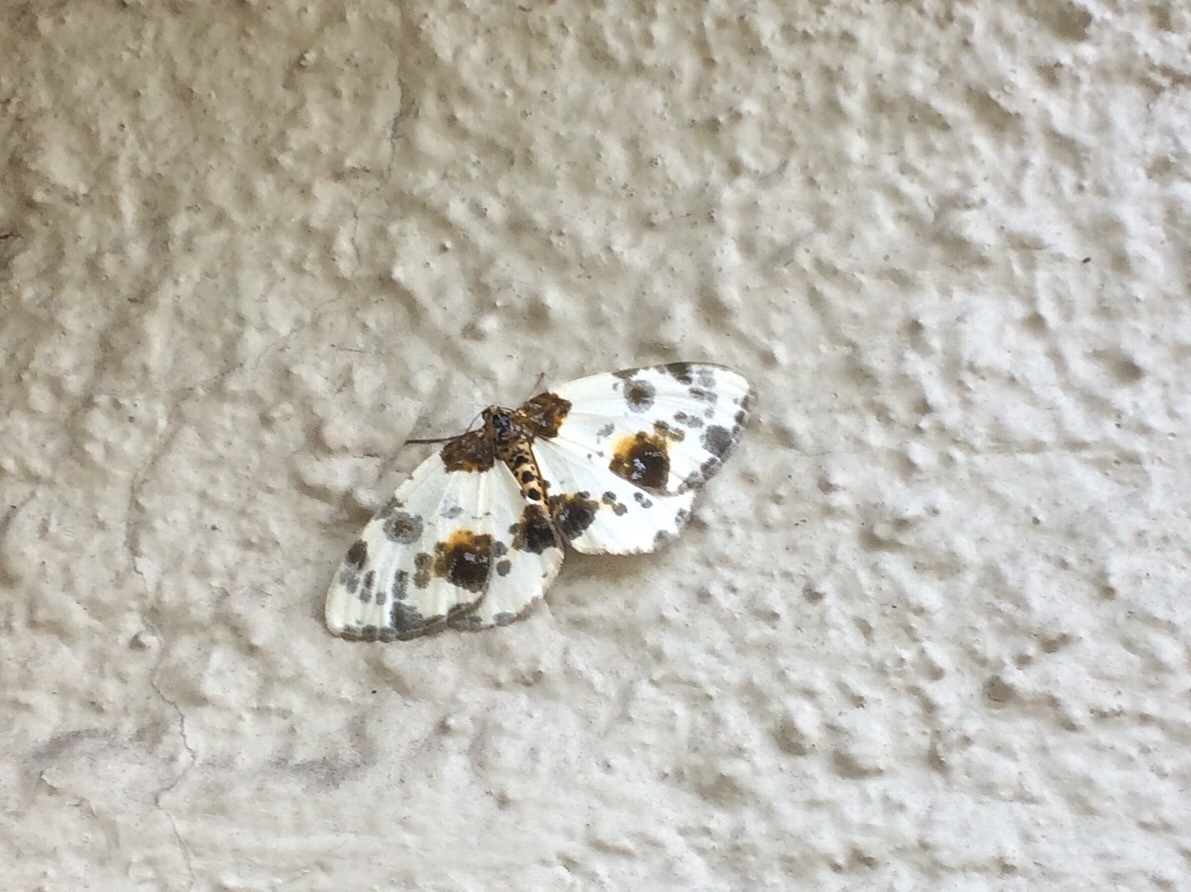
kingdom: Animalia
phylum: Arthropoda
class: Insecta
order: Lepidoptera
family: Geometridae
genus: Abraxas
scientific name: Abraxas sylvata
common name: Clouded magpie
